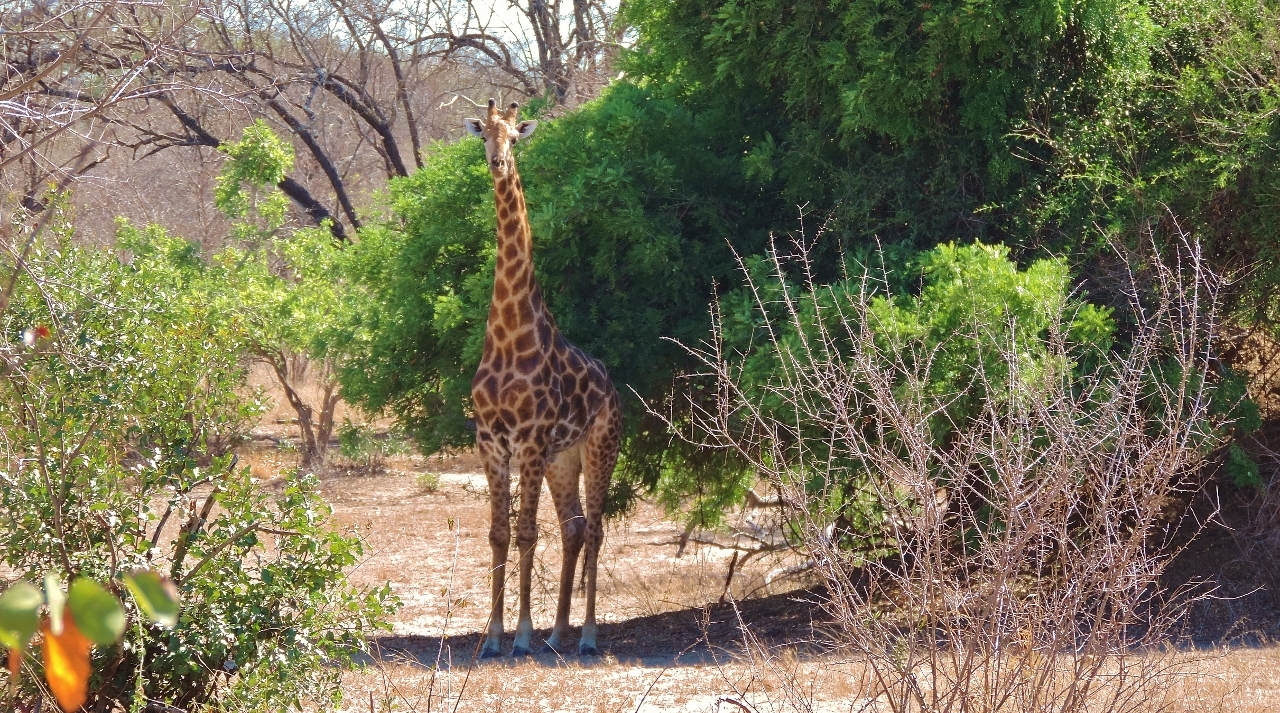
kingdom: Animalia
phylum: Chordata
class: Mammalia
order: Artiodactyla
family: Giraffidae
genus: Giraffa
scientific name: Giraffa giraffa
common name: Southern giraffe
